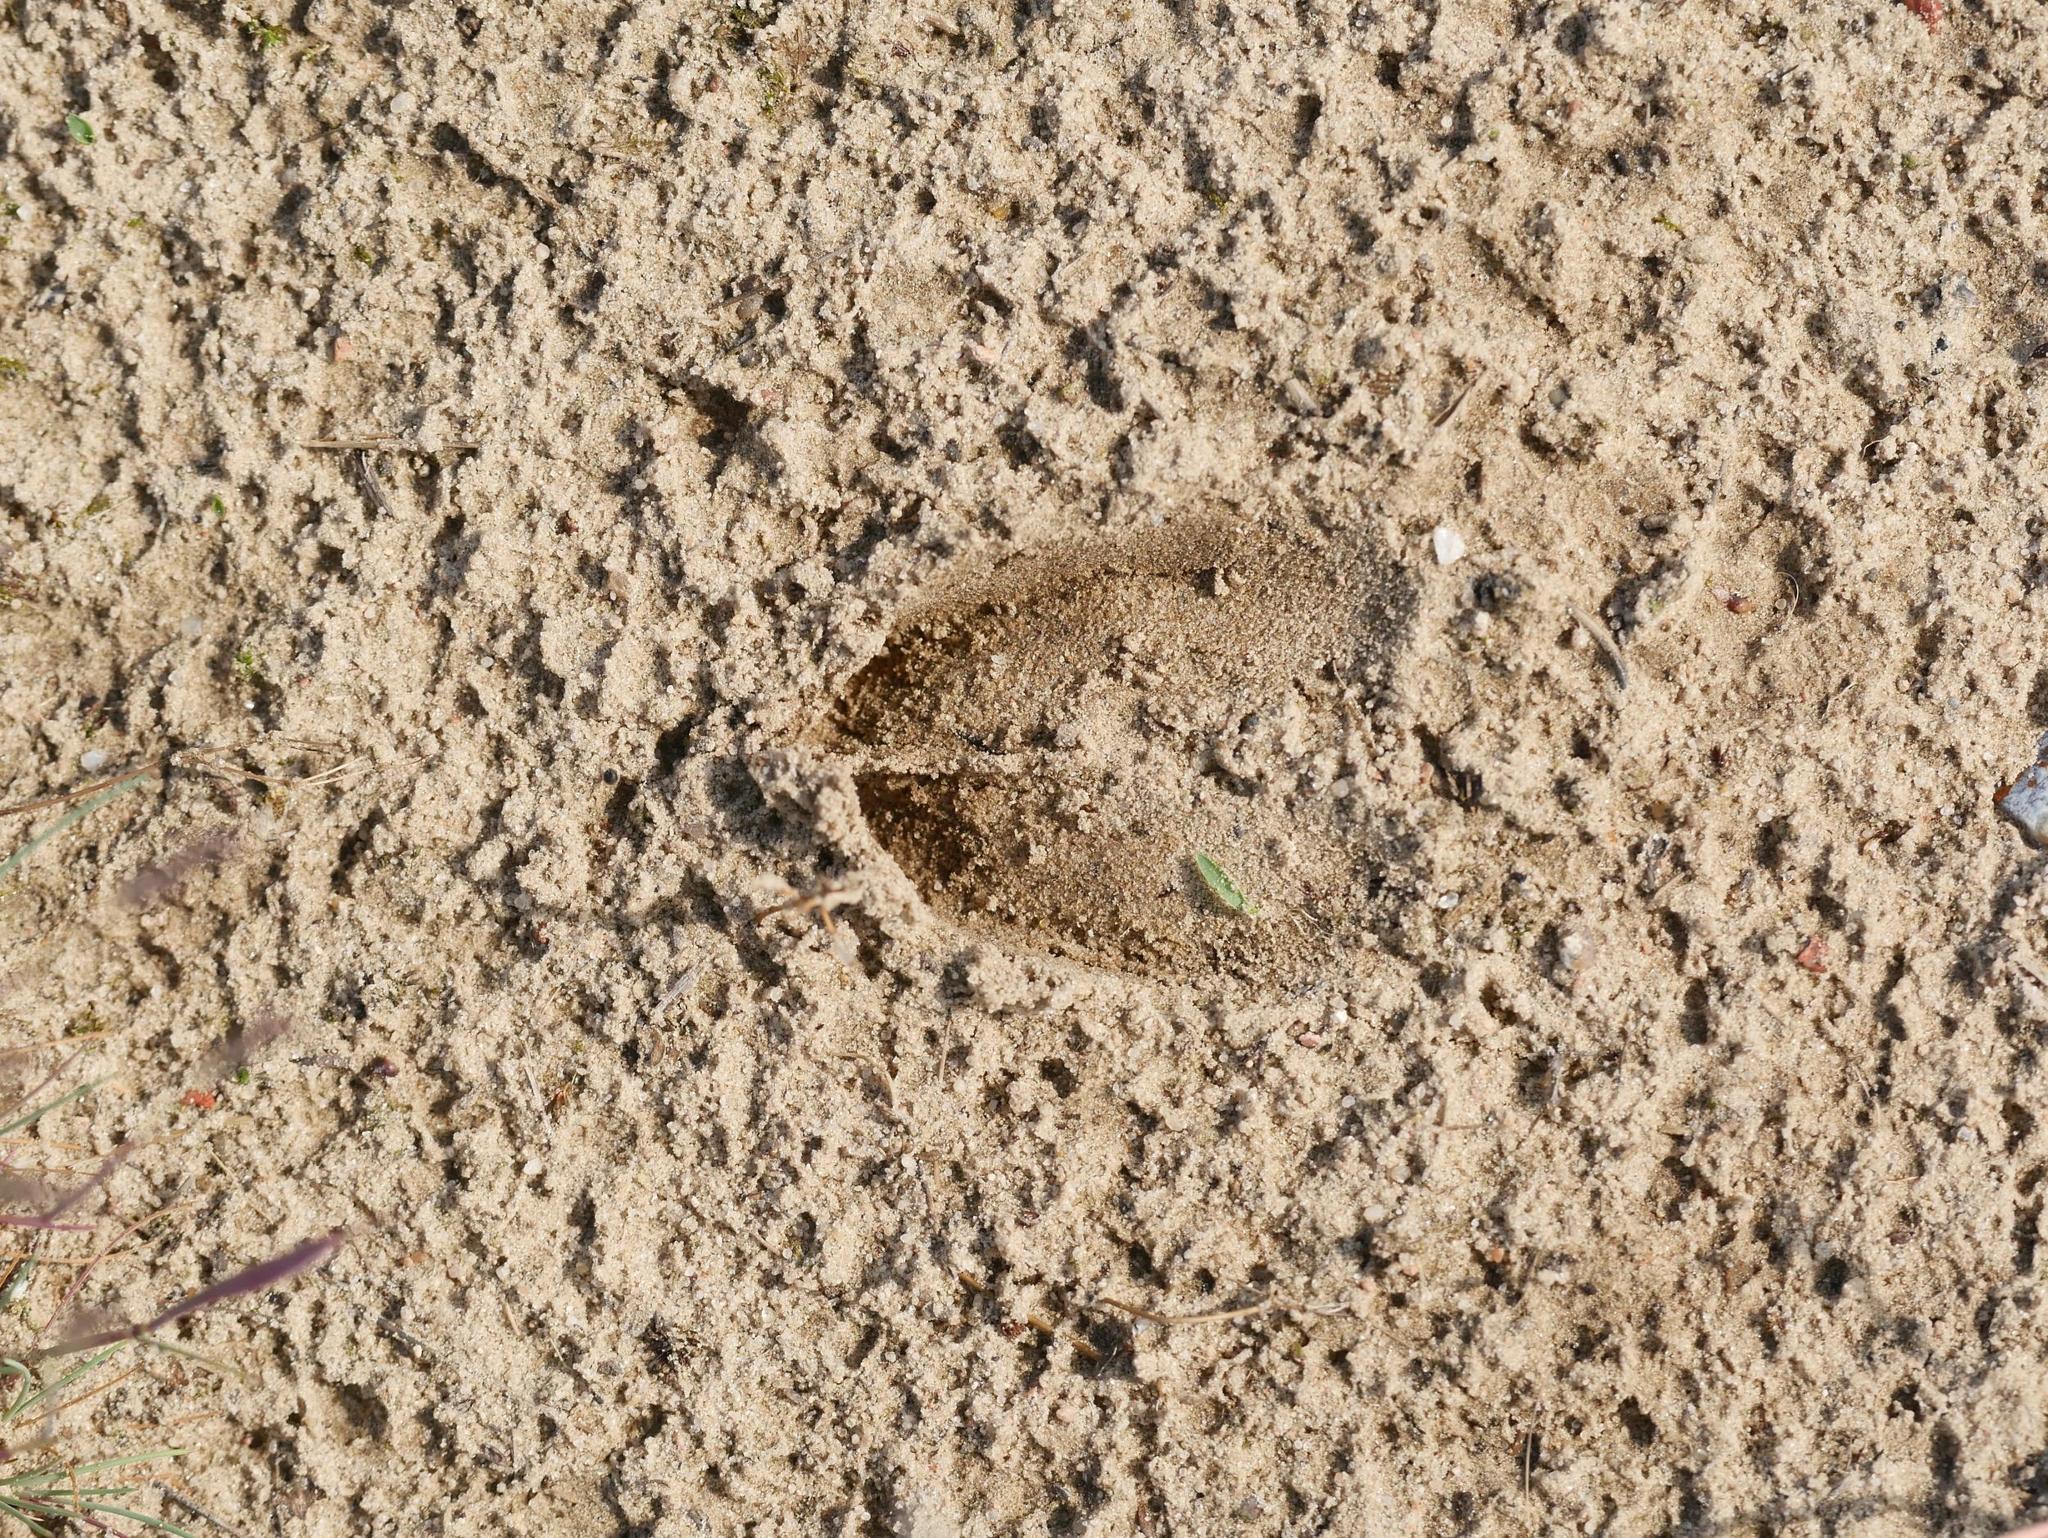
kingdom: Animalia
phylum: Chordata
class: Mammalia
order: Artiodactyla
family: Cervidae
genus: Cervus
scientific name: Cervus elaphus
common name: Red deer
